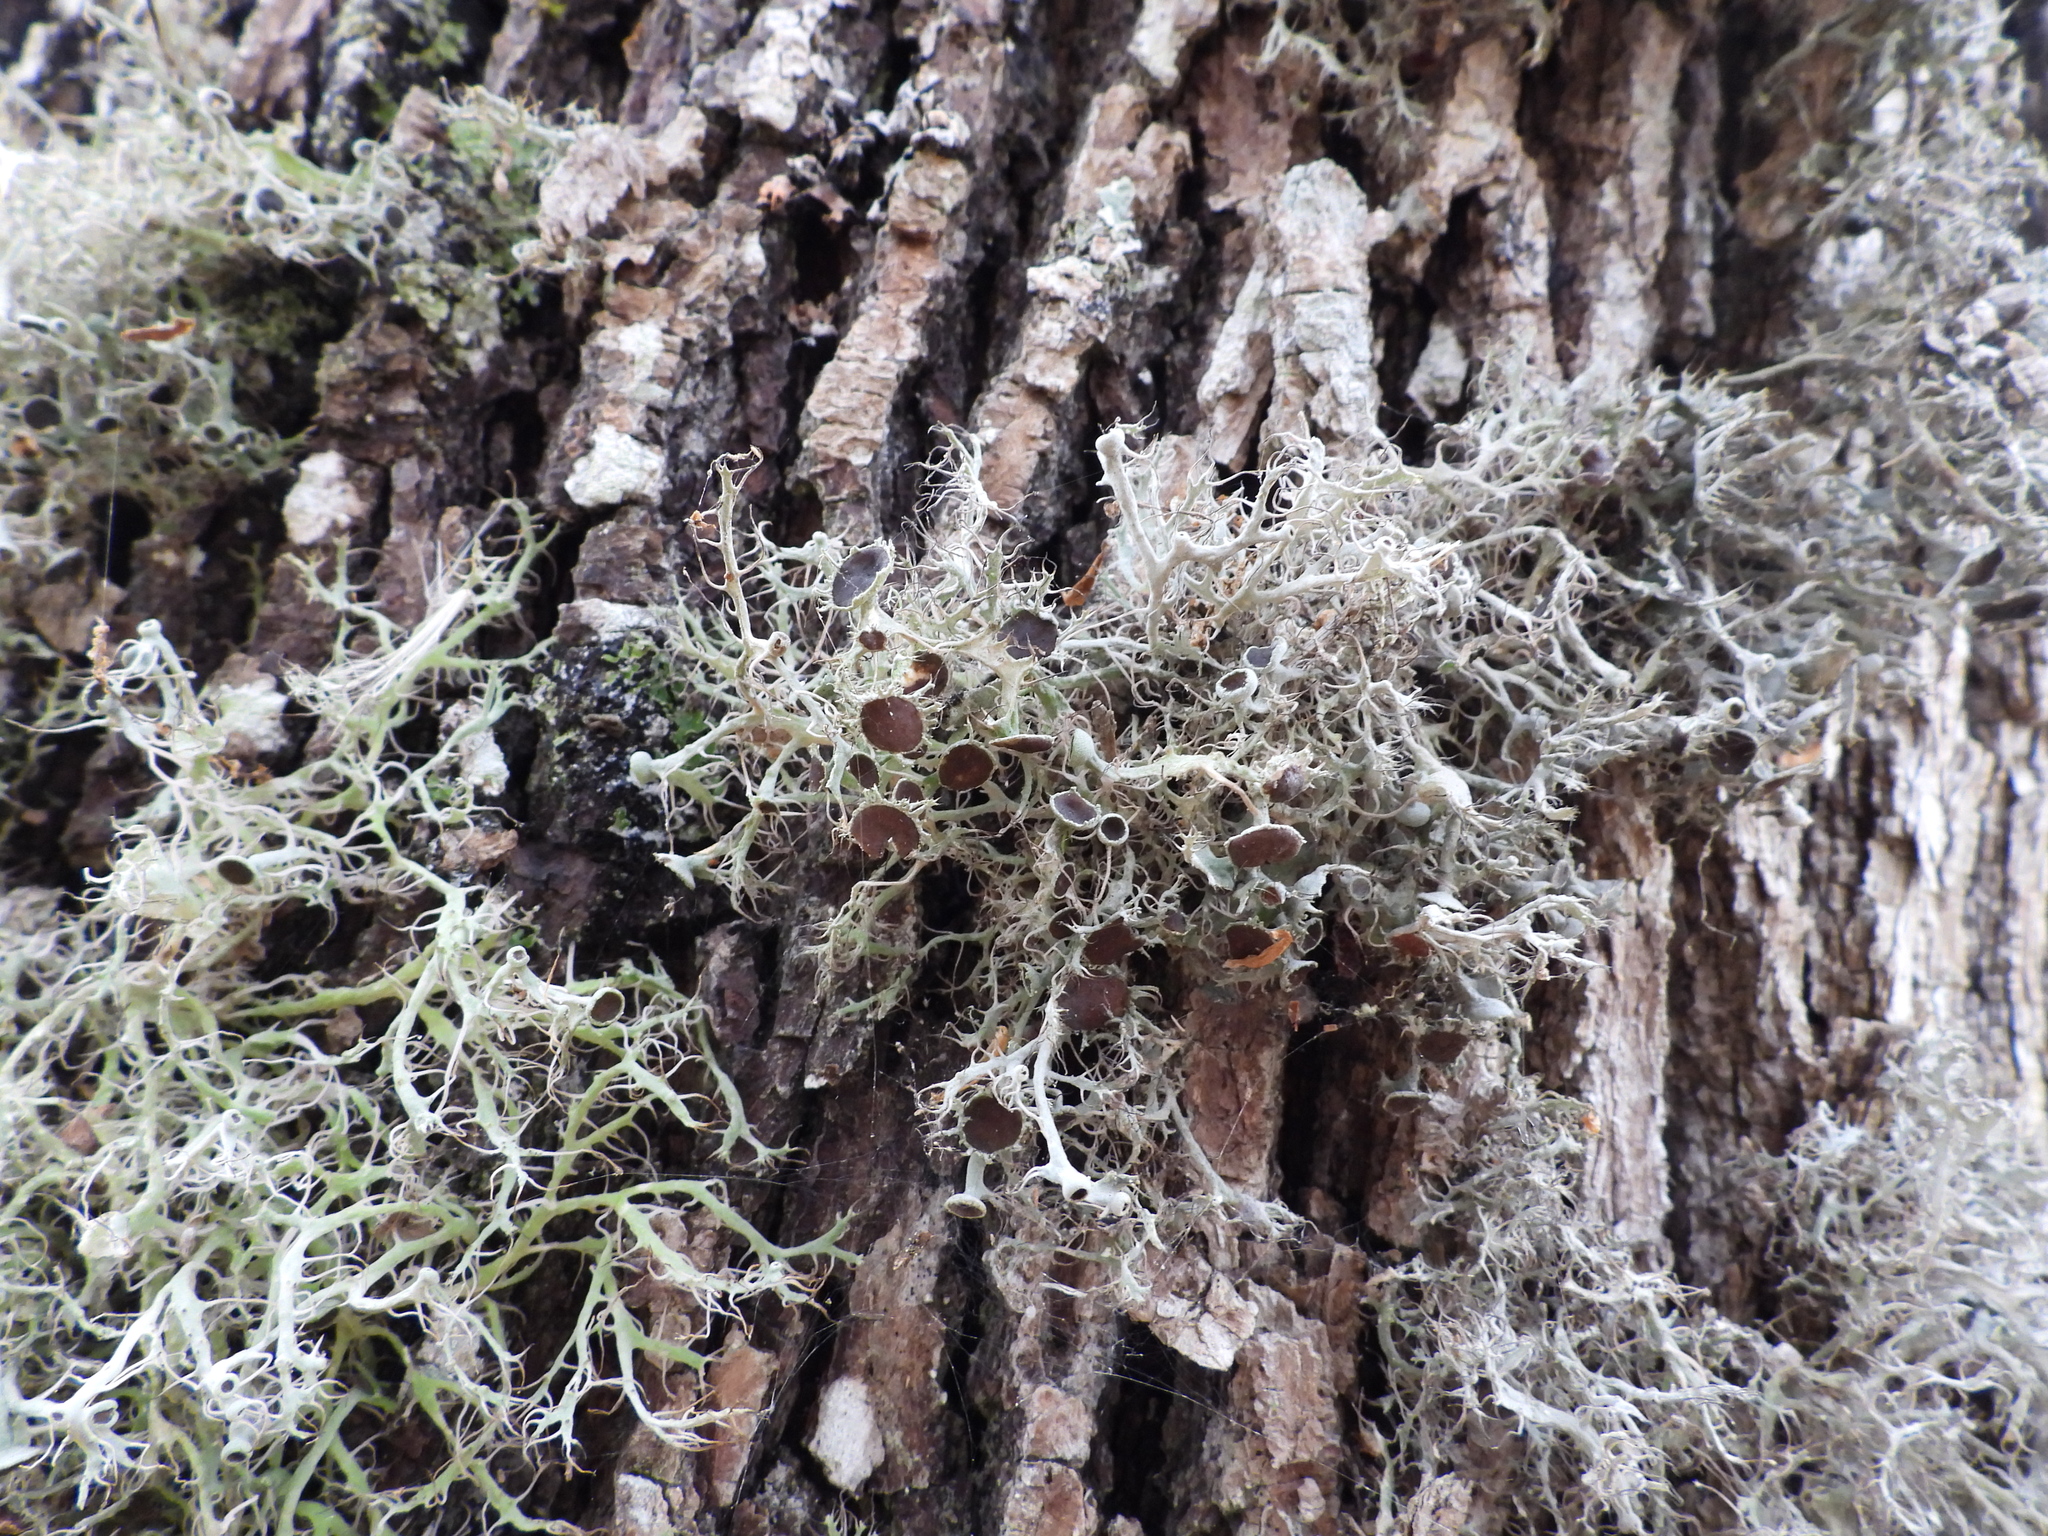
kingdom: Fungi
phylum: Ascomycota
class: Lecanoromycetes
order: Caliciales
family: Physciaceae
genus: Anaptychia
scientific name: Anaptychia ciliaris
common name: Great ciliated lichen
